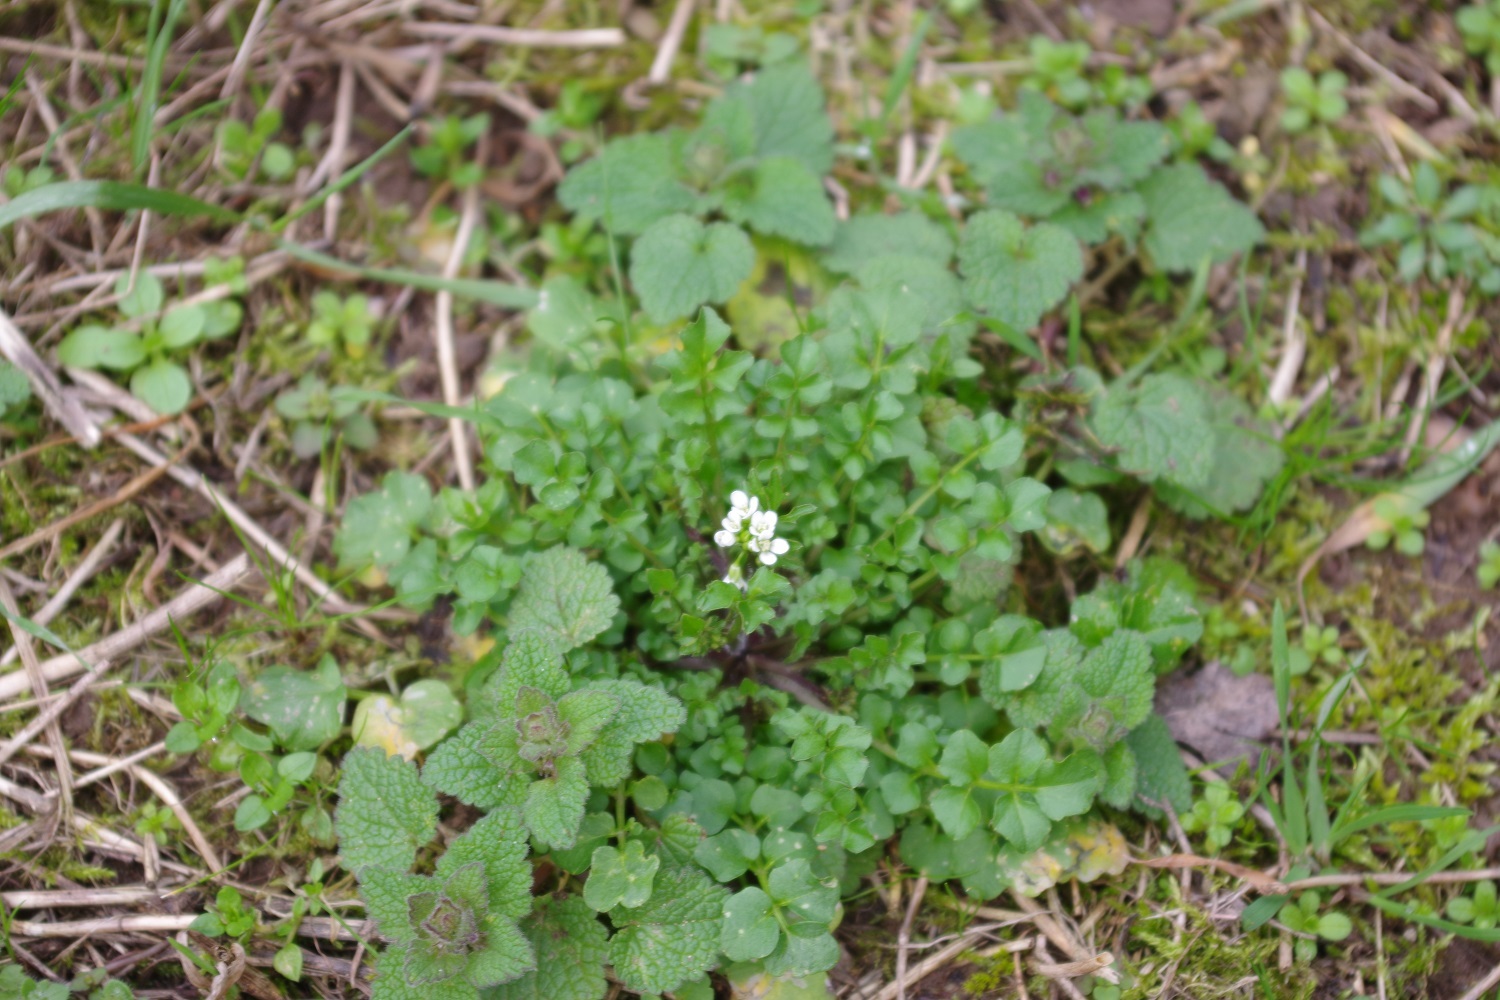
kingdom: Plantae
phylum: Tracheophyta
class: Magnoliopsida
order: Brassicales
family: Brassicaceae
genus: Cardamine
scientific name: Cardamine flexuosa
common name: Woodland bittercress
